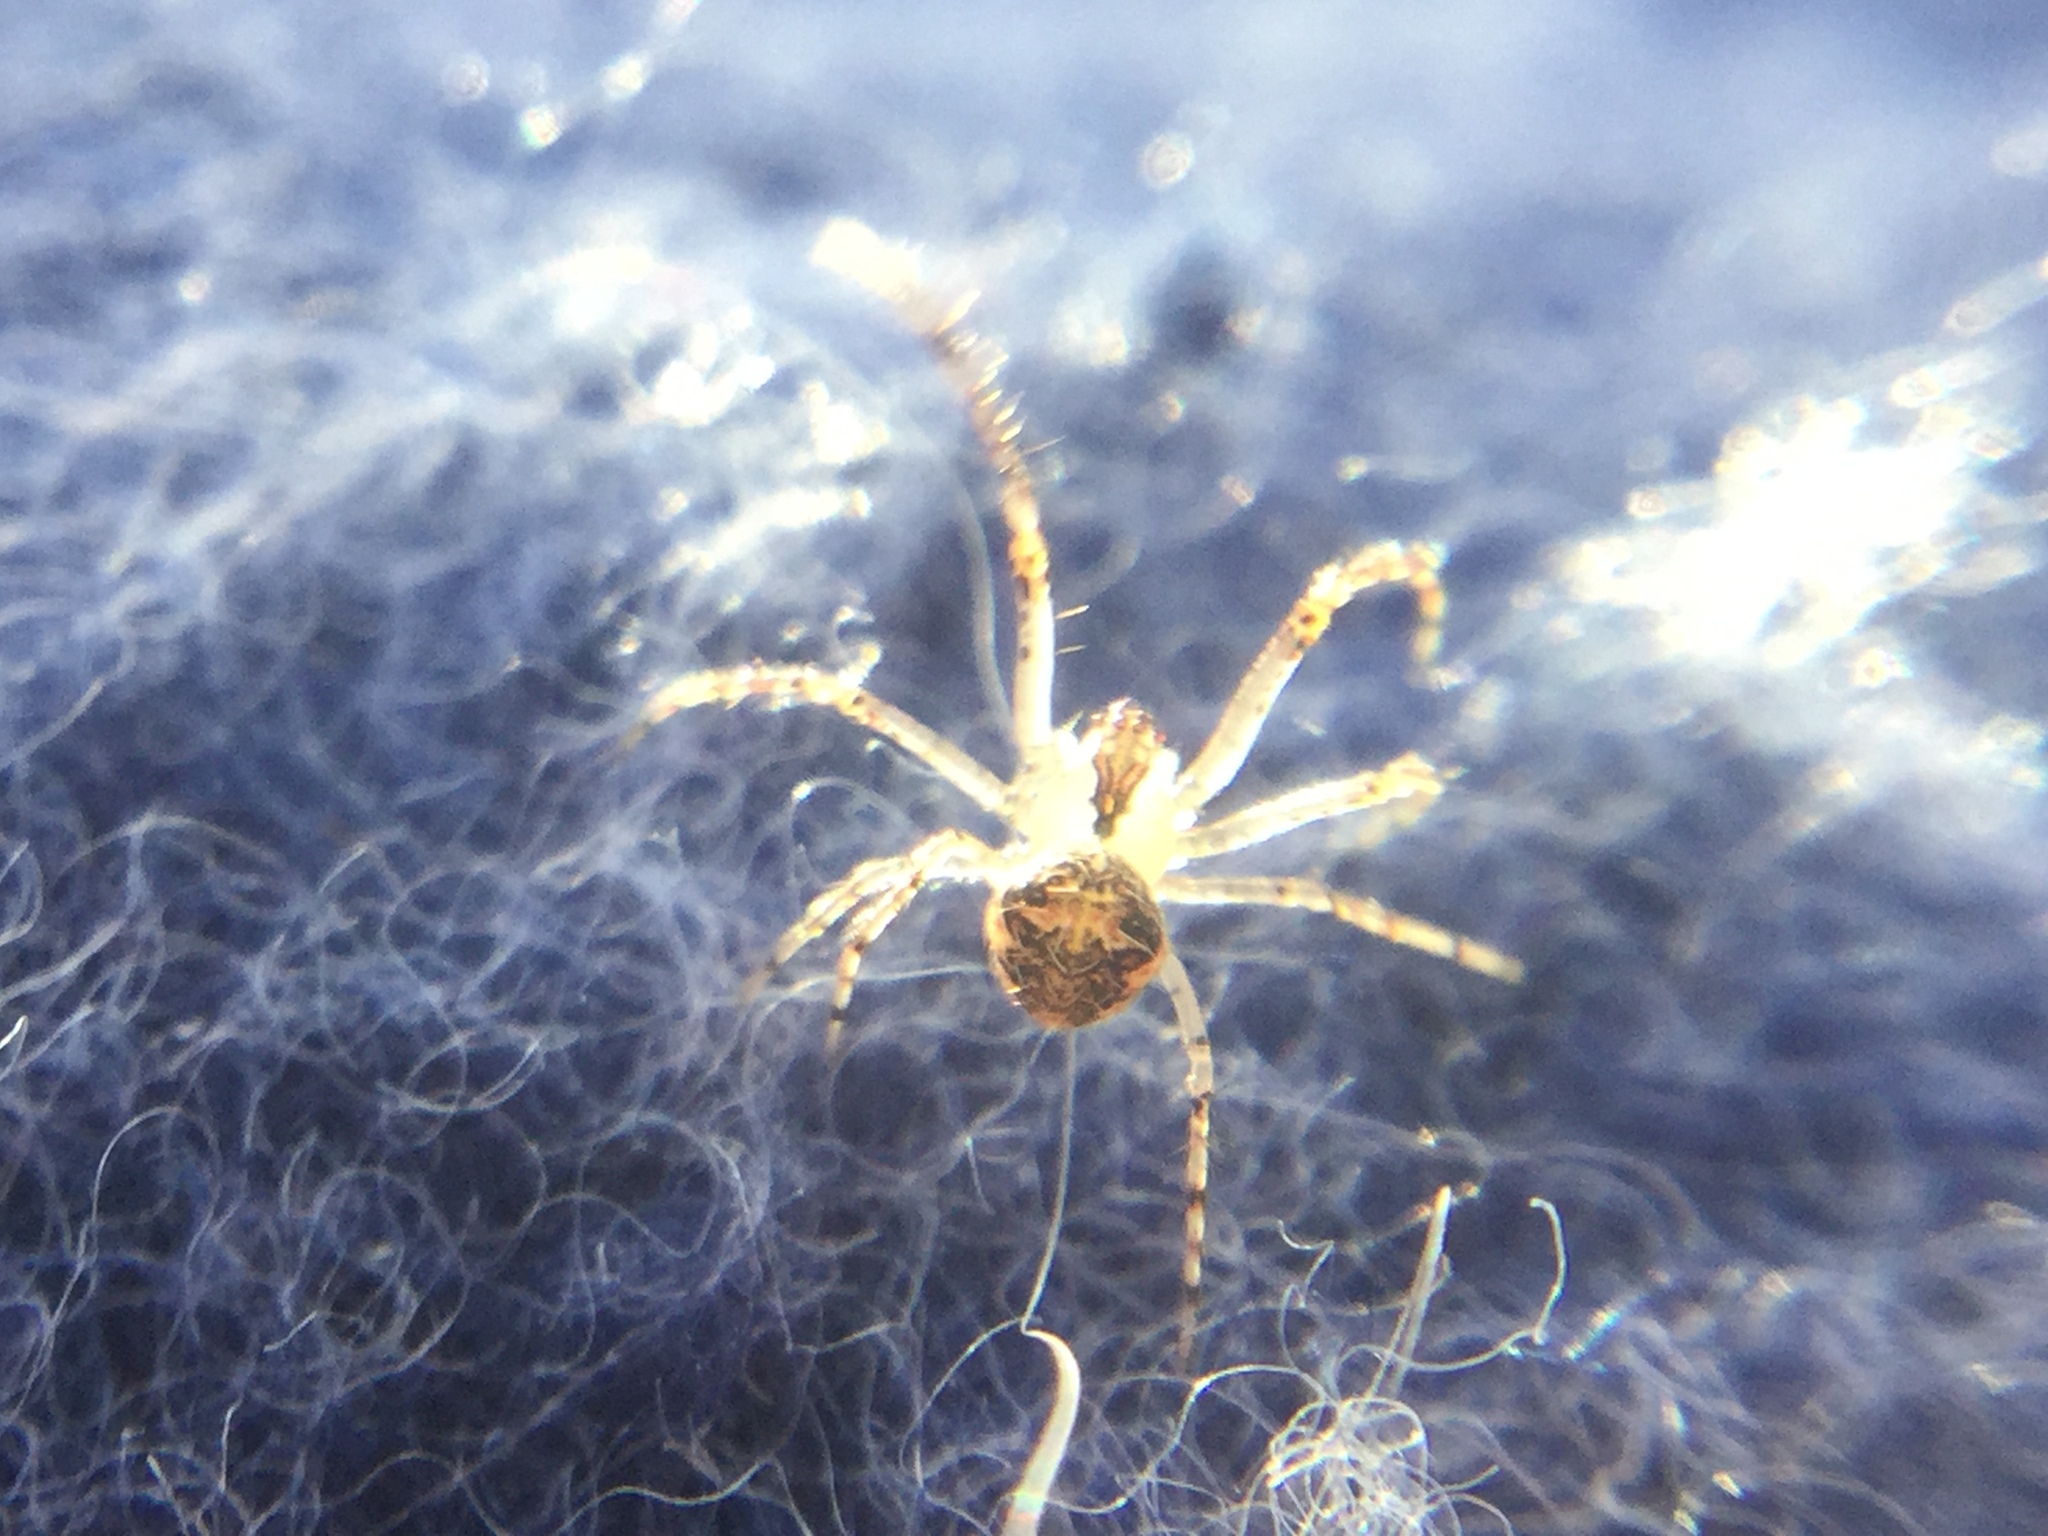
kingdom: Animalia
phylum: Arthropoda
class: Arachnida
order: Araneae
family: Mimetidae
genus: Mimetus
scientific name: Mimetus puritanus
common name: Common pirate spider
